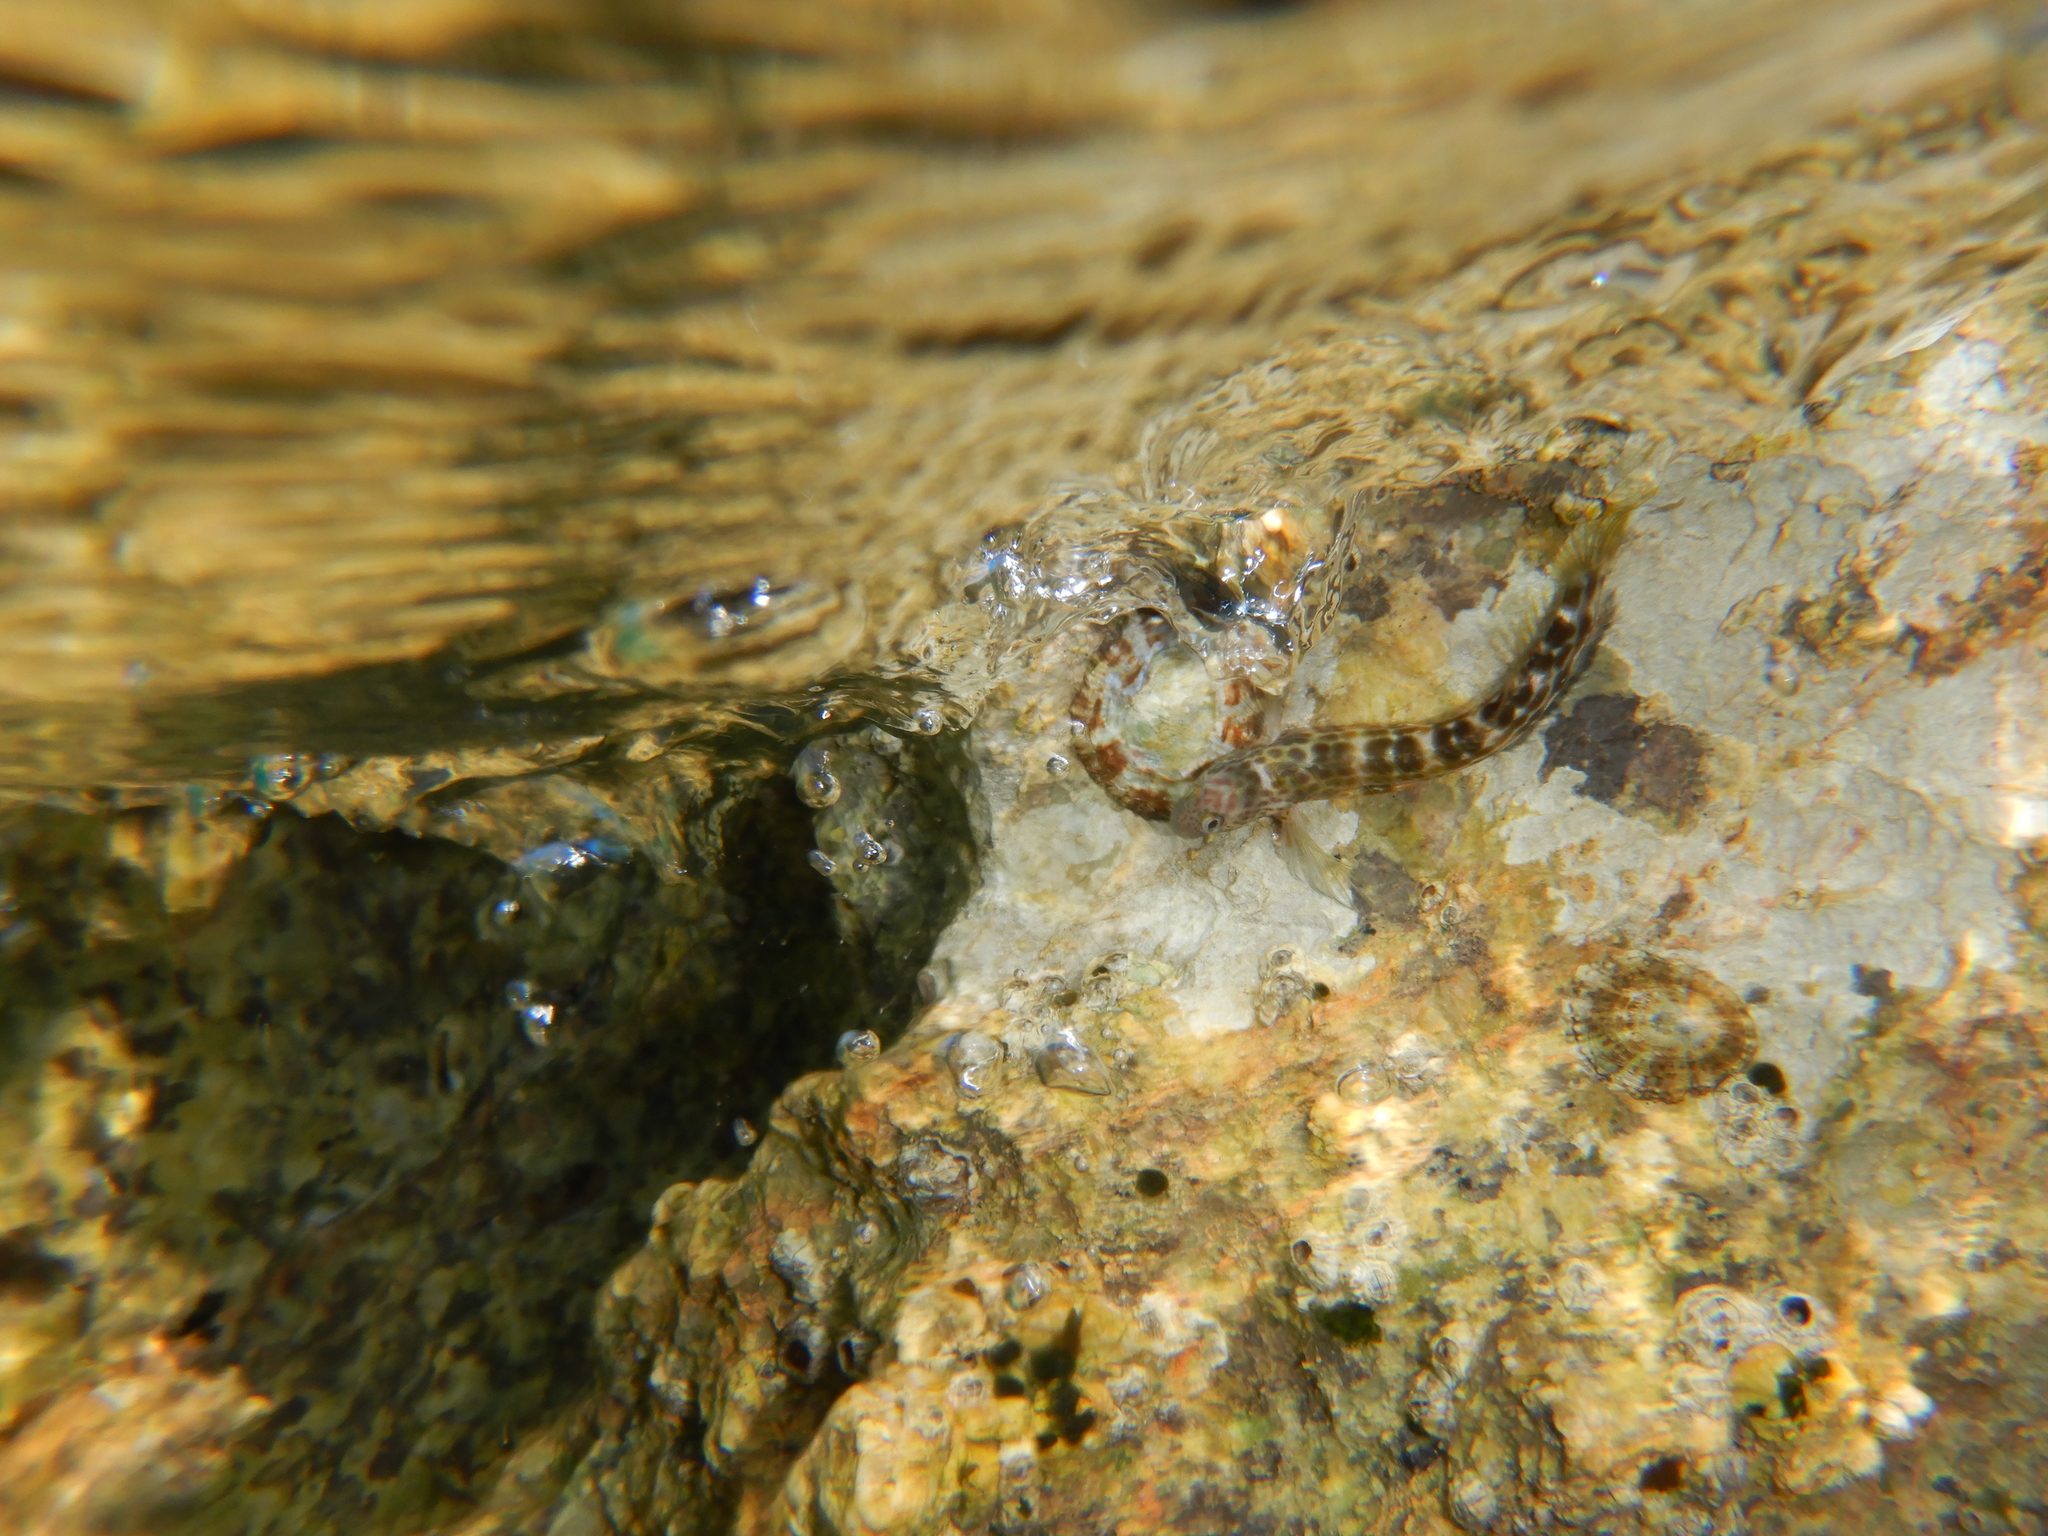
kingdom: Animalia
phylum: Chordata
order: Perciformes
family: Blenniidae
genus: Microlipophrys
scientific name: Microlipophrys canevae
